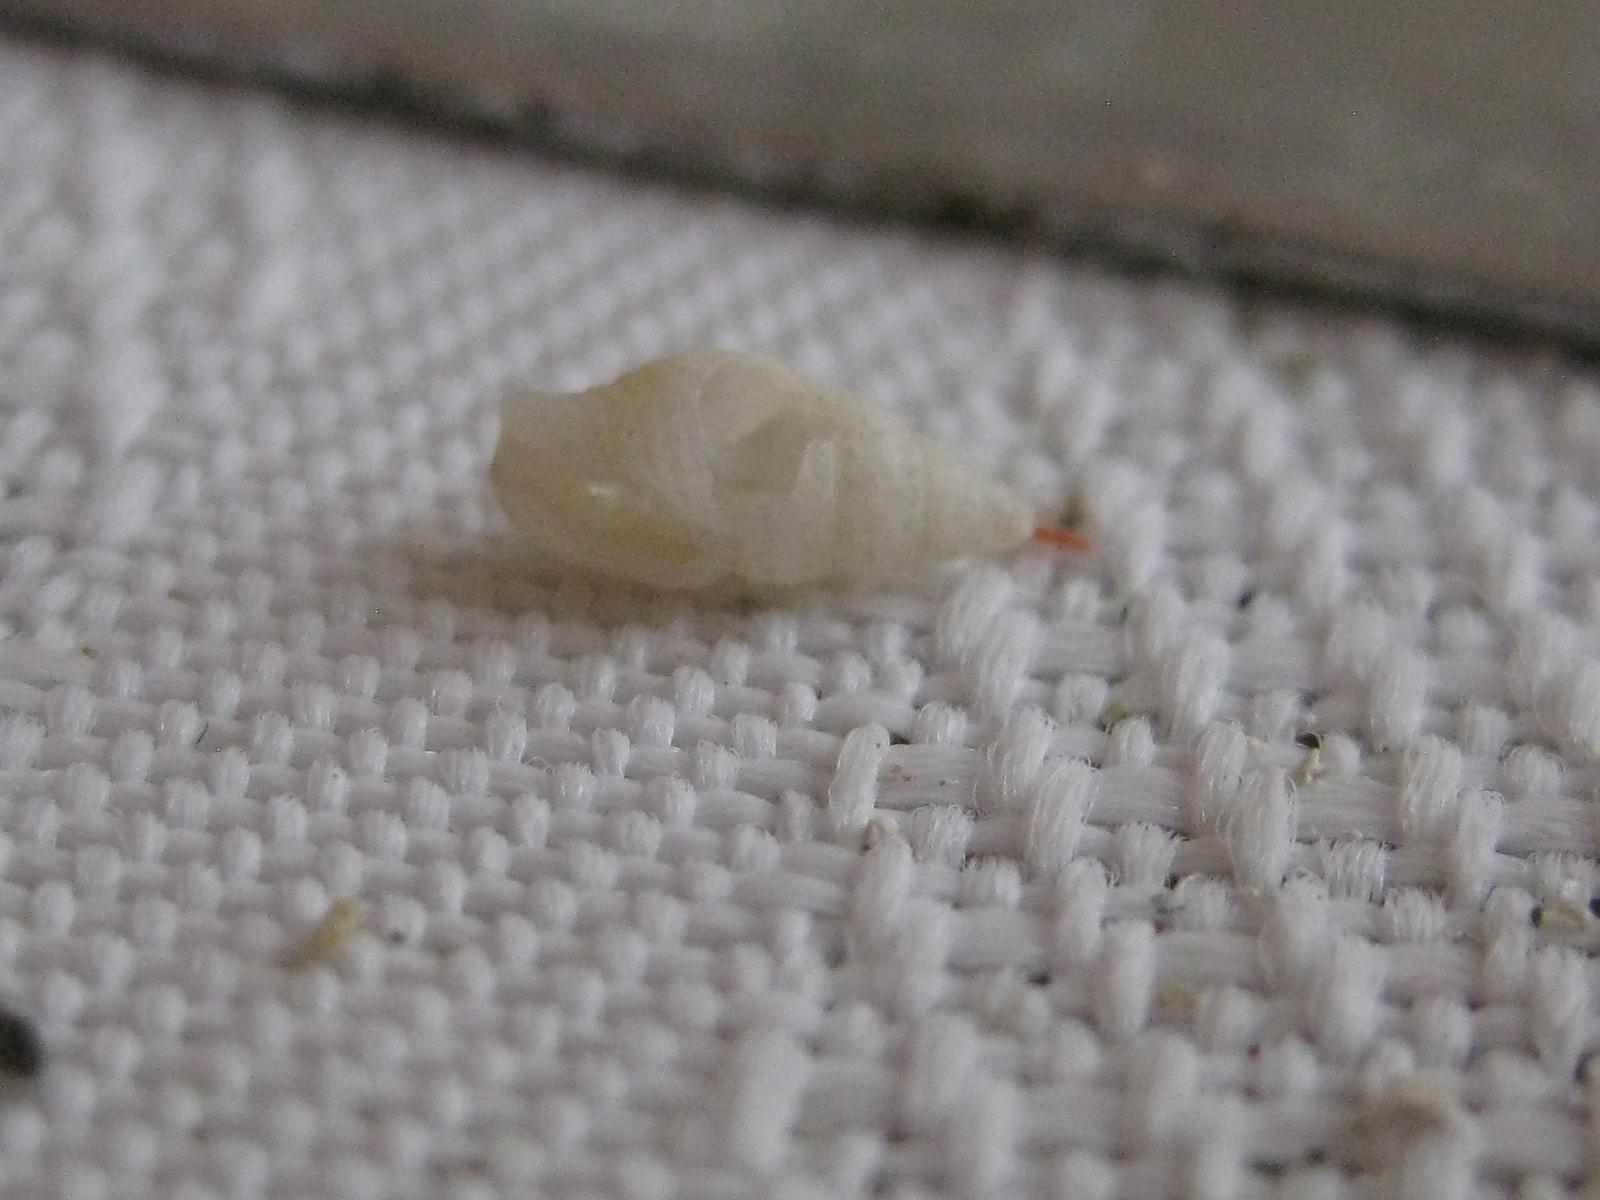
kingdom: Animalia
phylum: Mollusca
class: Gastropoda
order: Neogastropoda
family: Columbellidae
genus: Zemitrella
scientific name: Zemitrella
